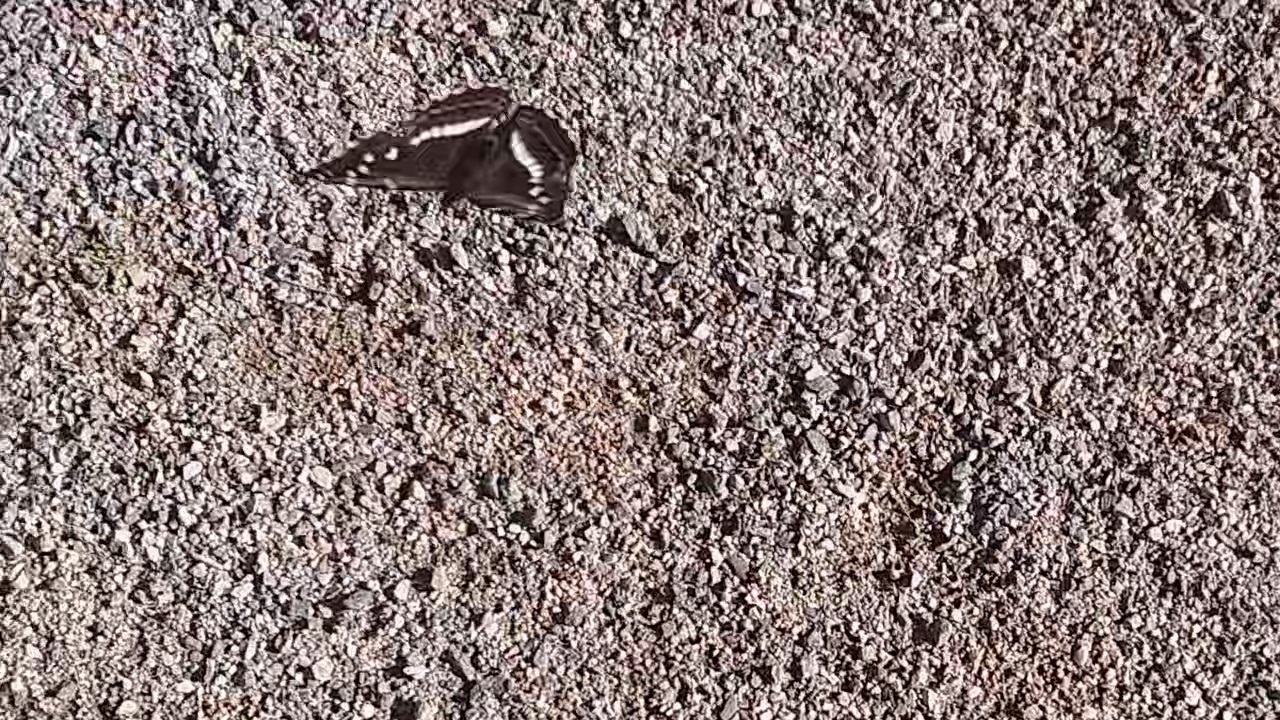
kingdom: Animalia
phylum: Arthropoda
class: Insecta
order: Lepidoptera
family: Nymphalidae
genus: Limenitis
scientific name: Limenitis populi
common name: Poplar admiral
